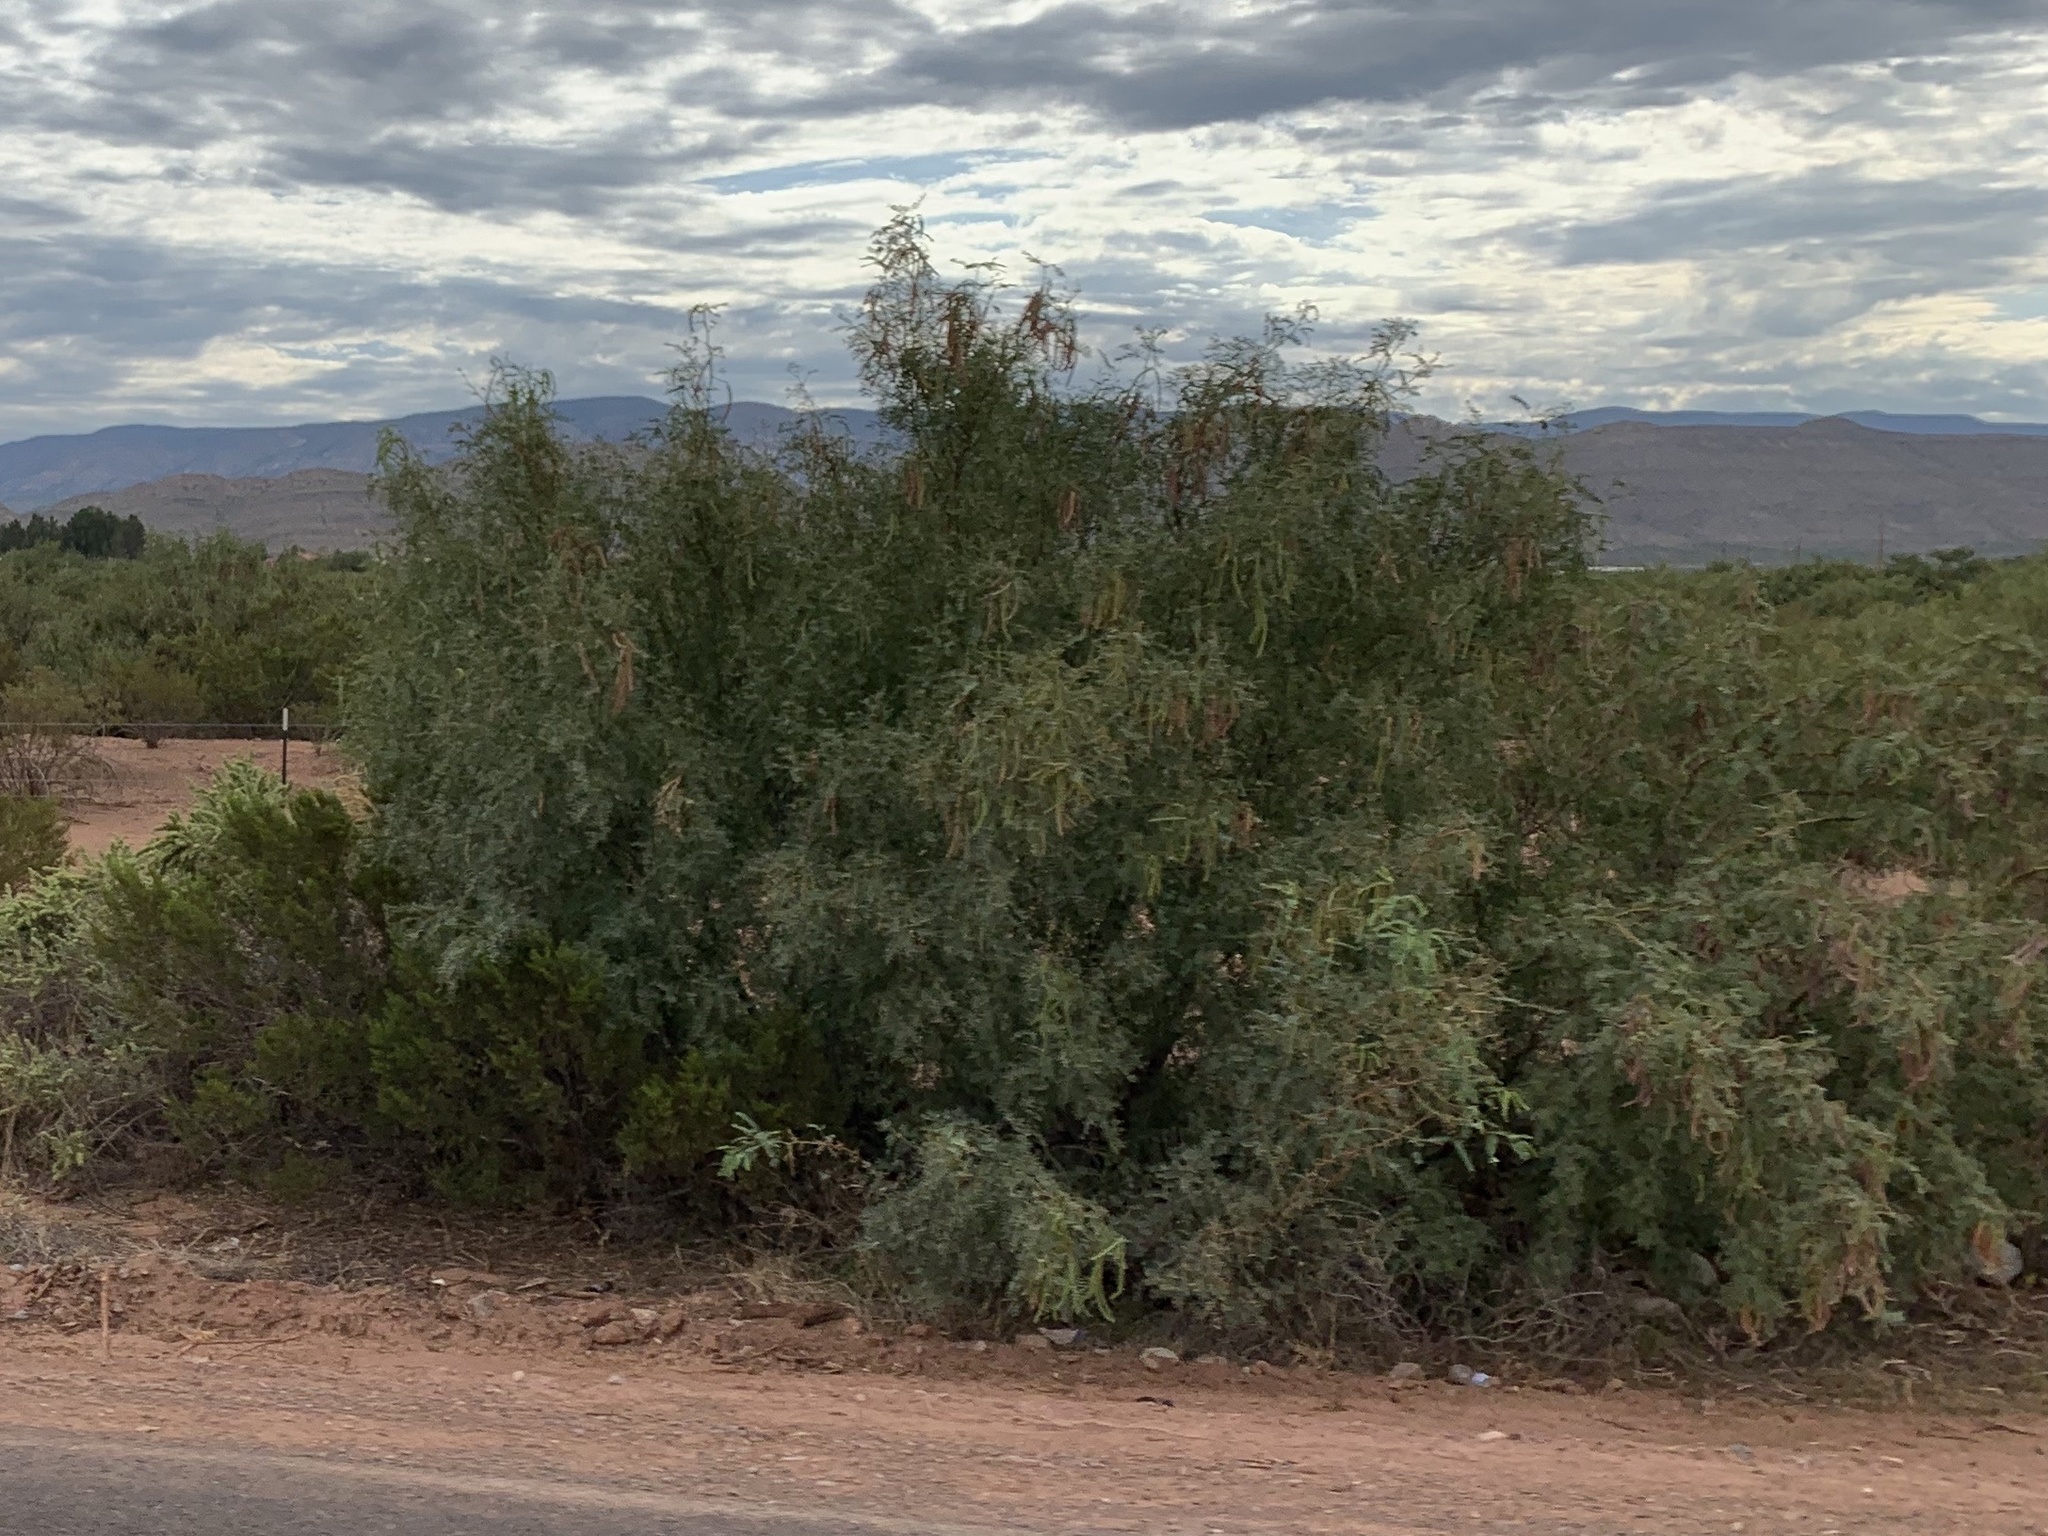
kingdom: Plantae
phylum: Tracheophyta
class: Magnoliopsida
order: Fabales
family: Fabaceae
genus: Prosopis
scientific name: Prosopis glandulosa
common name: Honey mesquite
